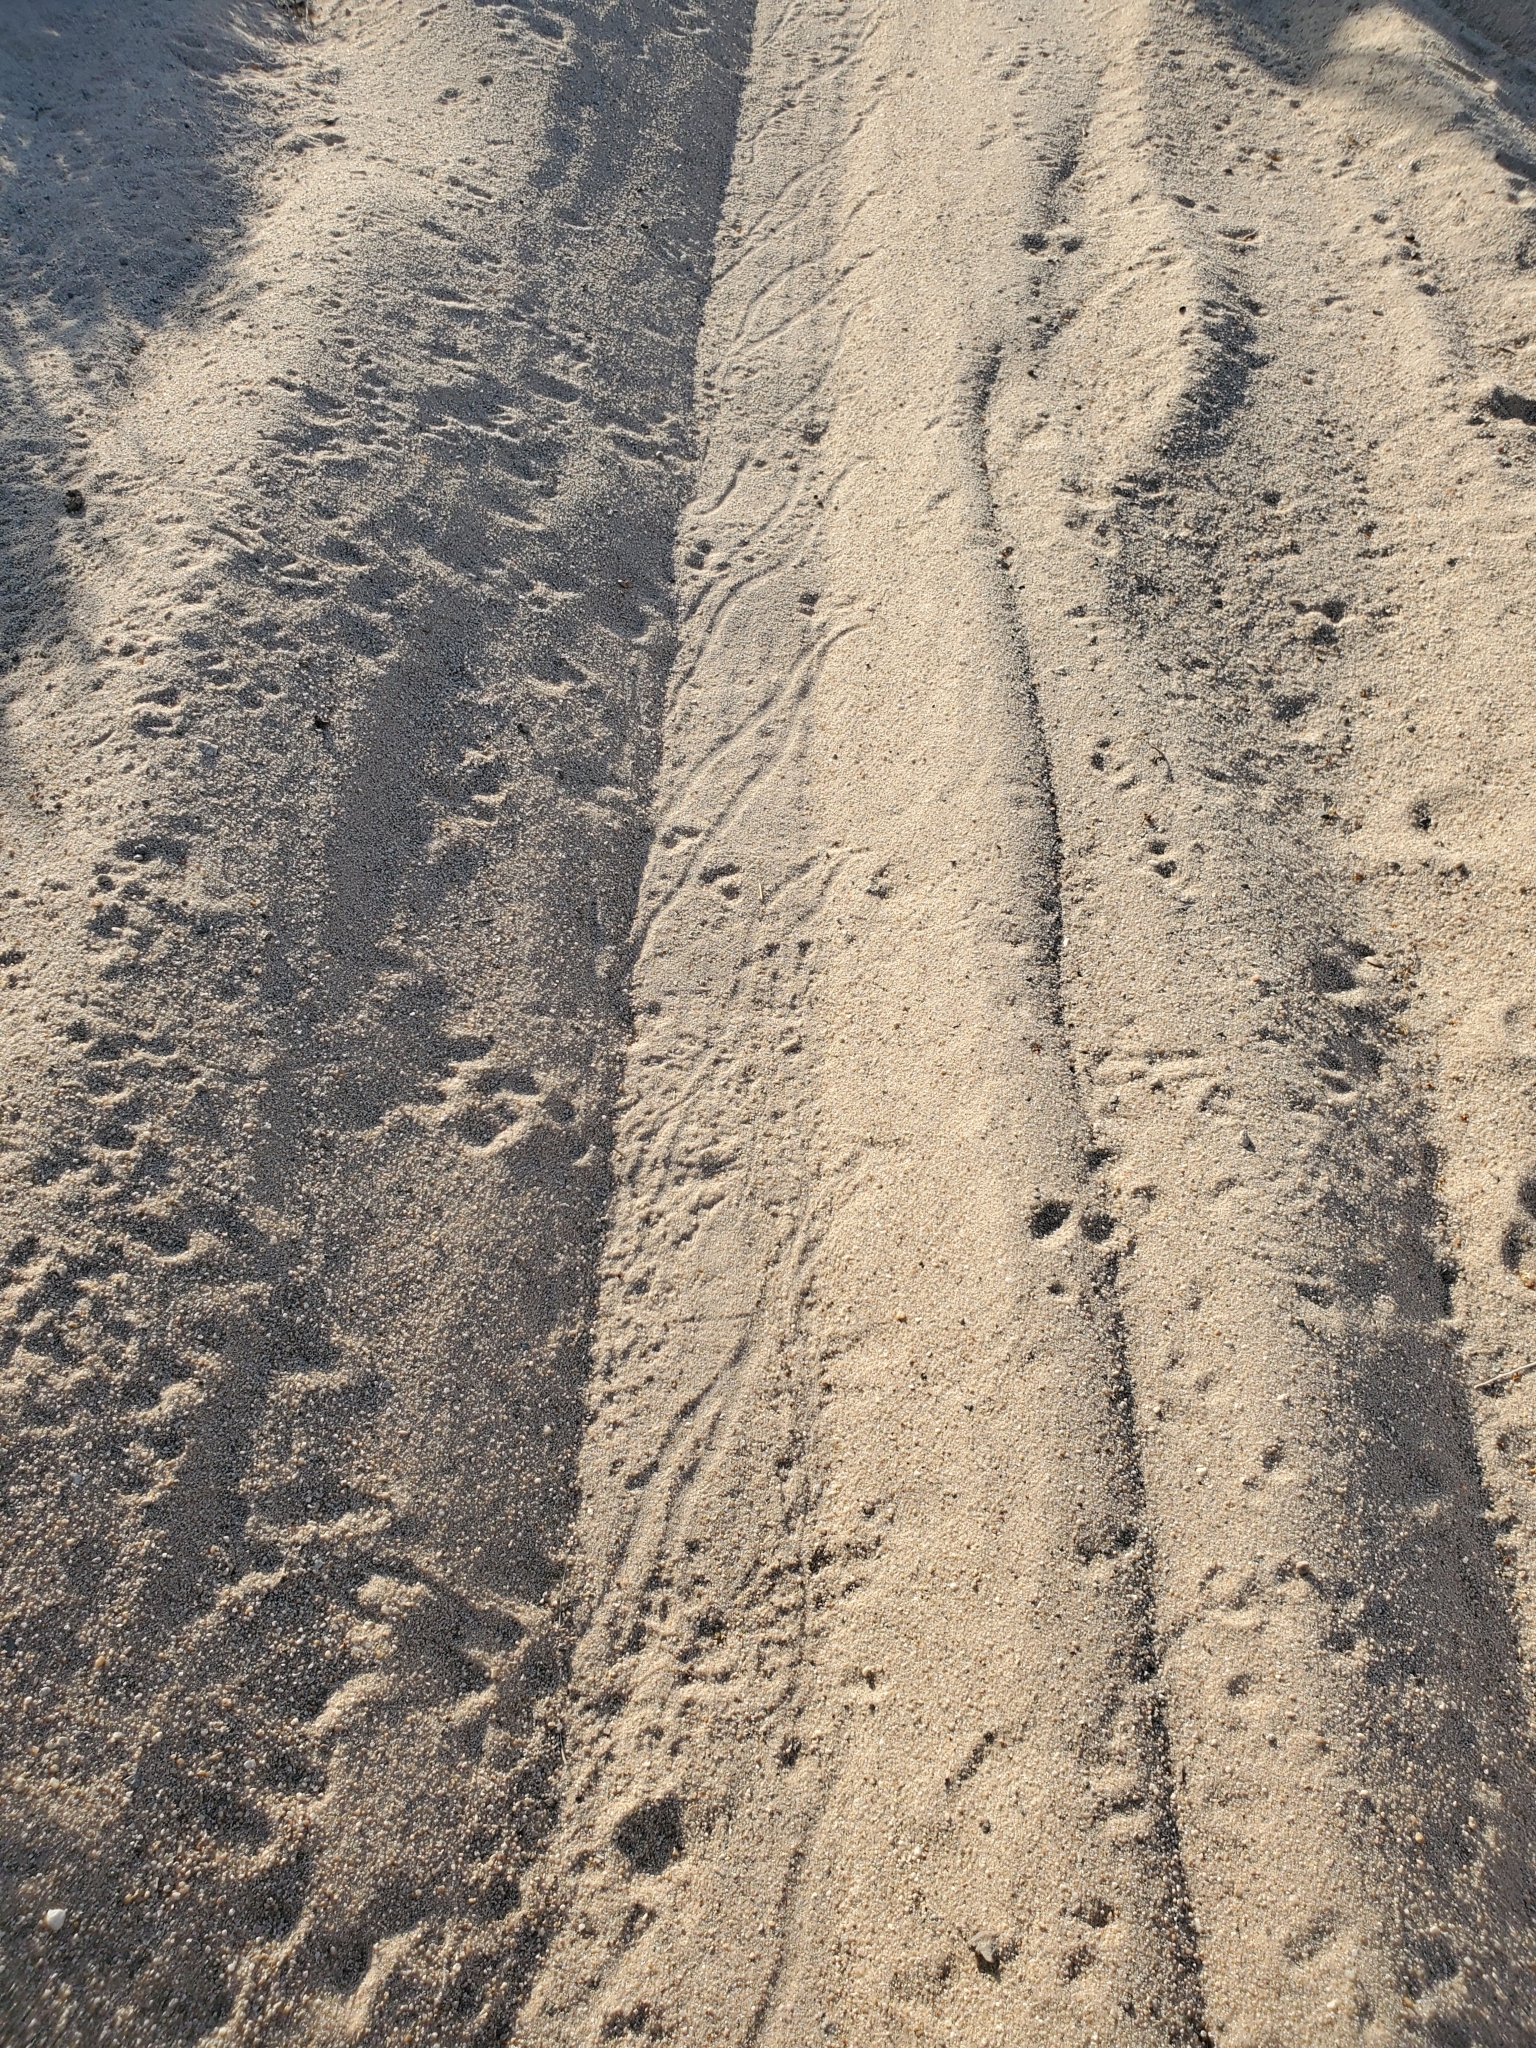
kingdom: Animalia
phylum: Chordata
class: Squamata
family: Viperidae
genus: Crotalus
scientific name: Crotalus cerastes
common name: Sidewinder
